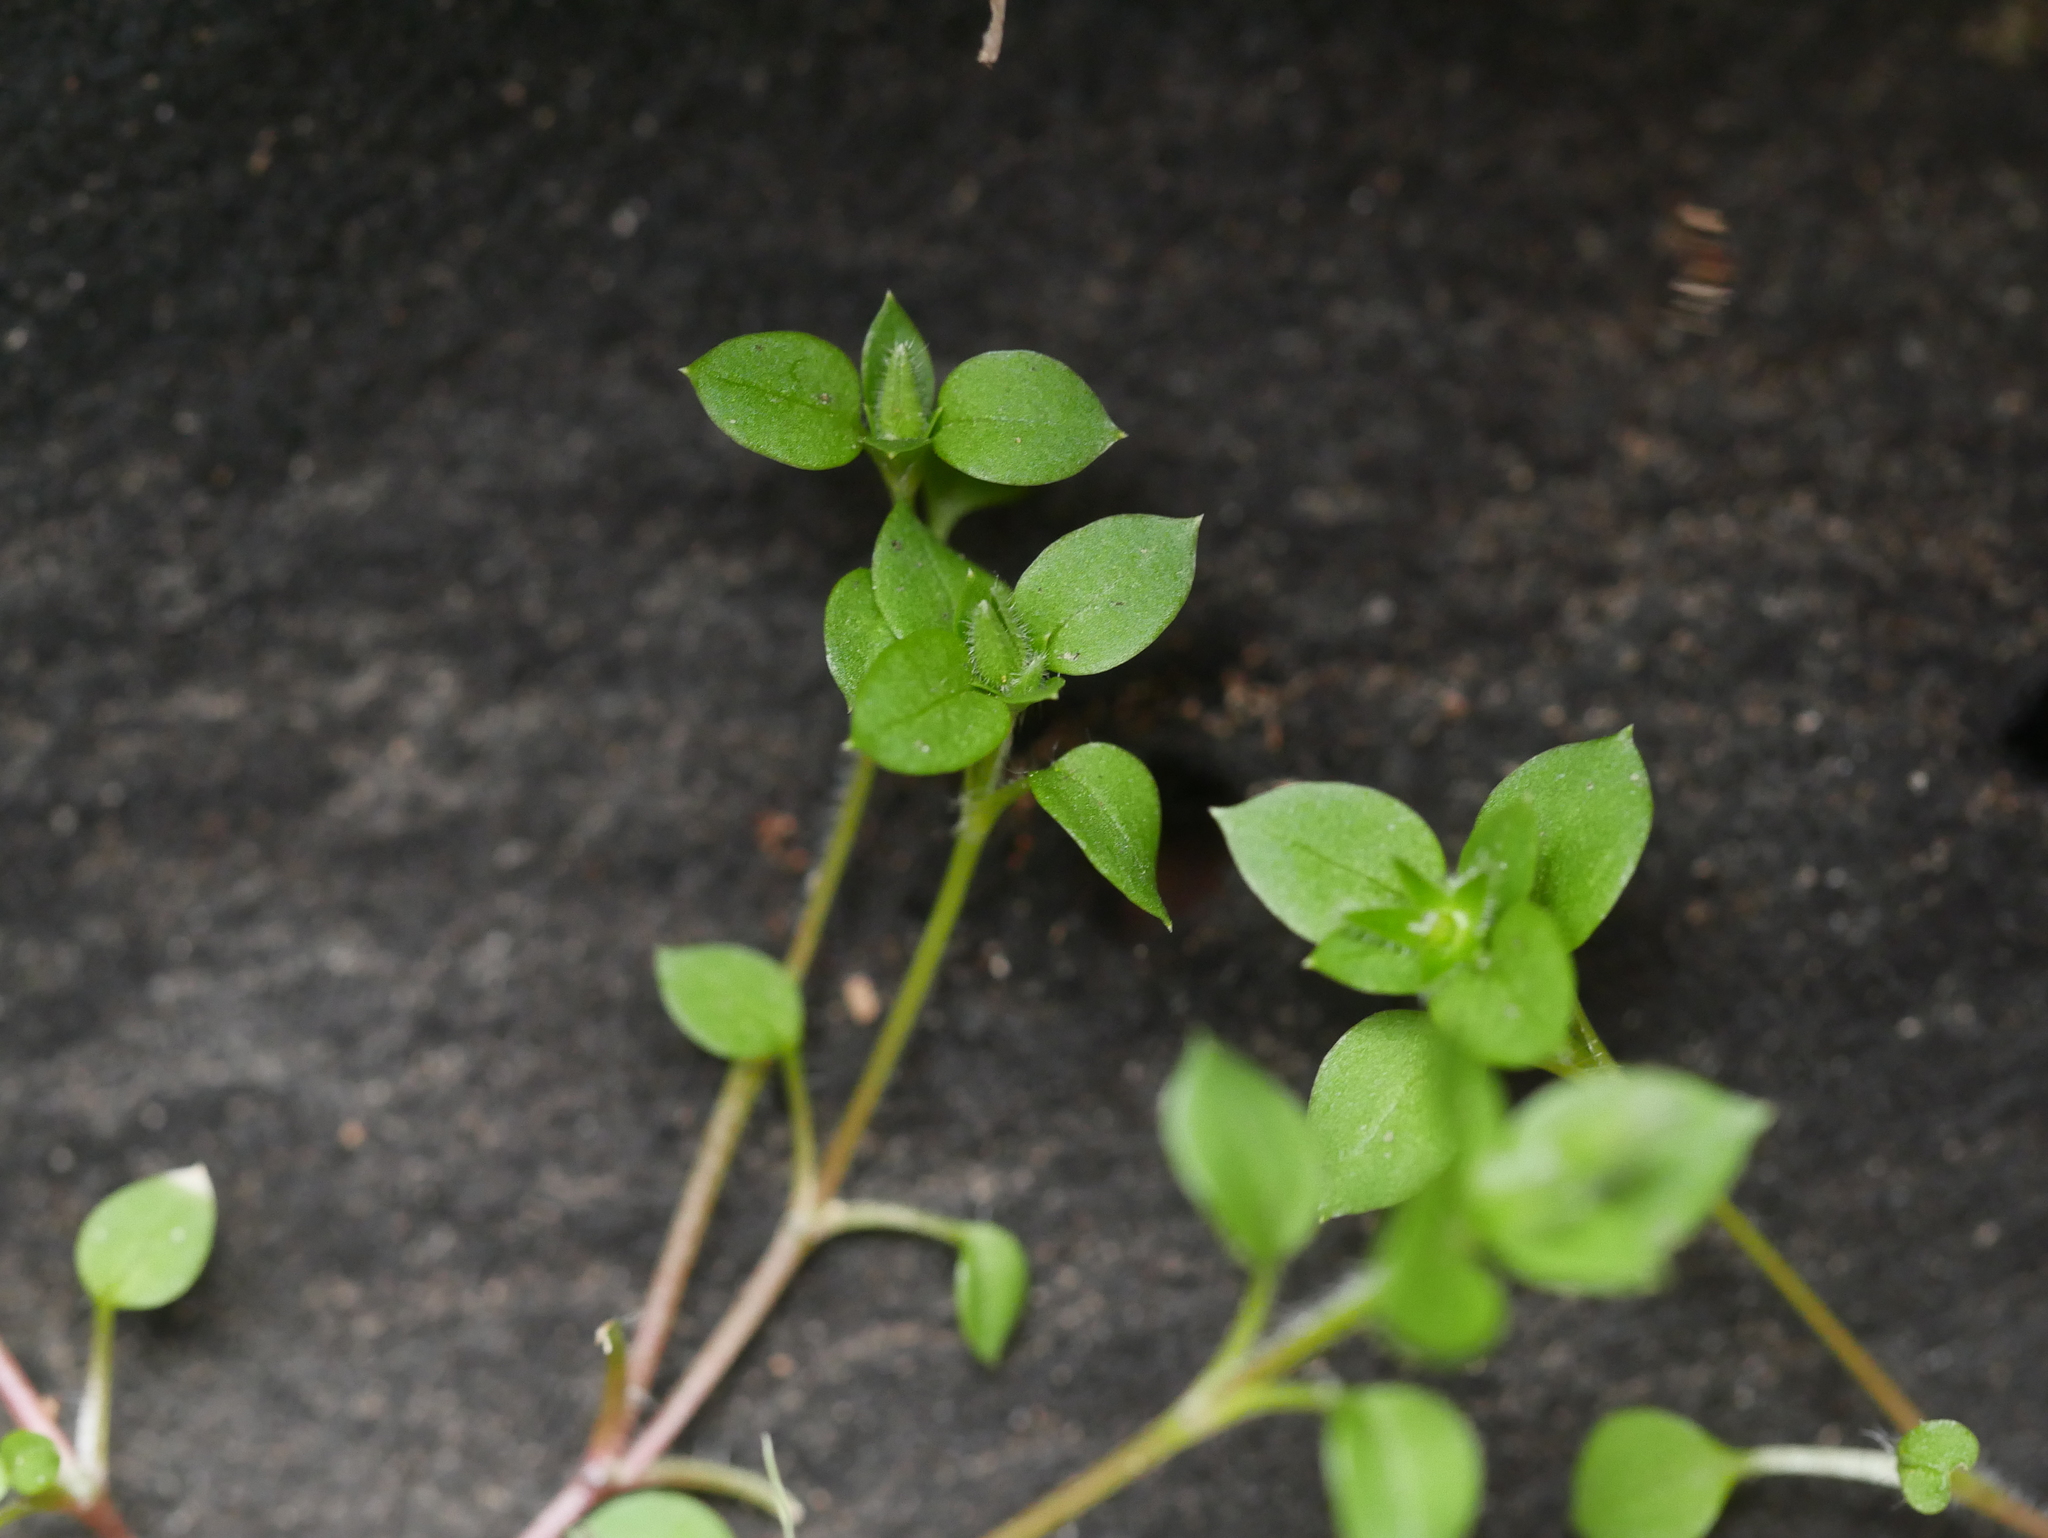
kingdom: Plantae
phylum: Tracheophyta
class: Magnoliopsida
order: Caryophyllales
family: Caryophyllaceae
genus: Stellaria
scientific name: Stellaria media
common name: Common chickweed
